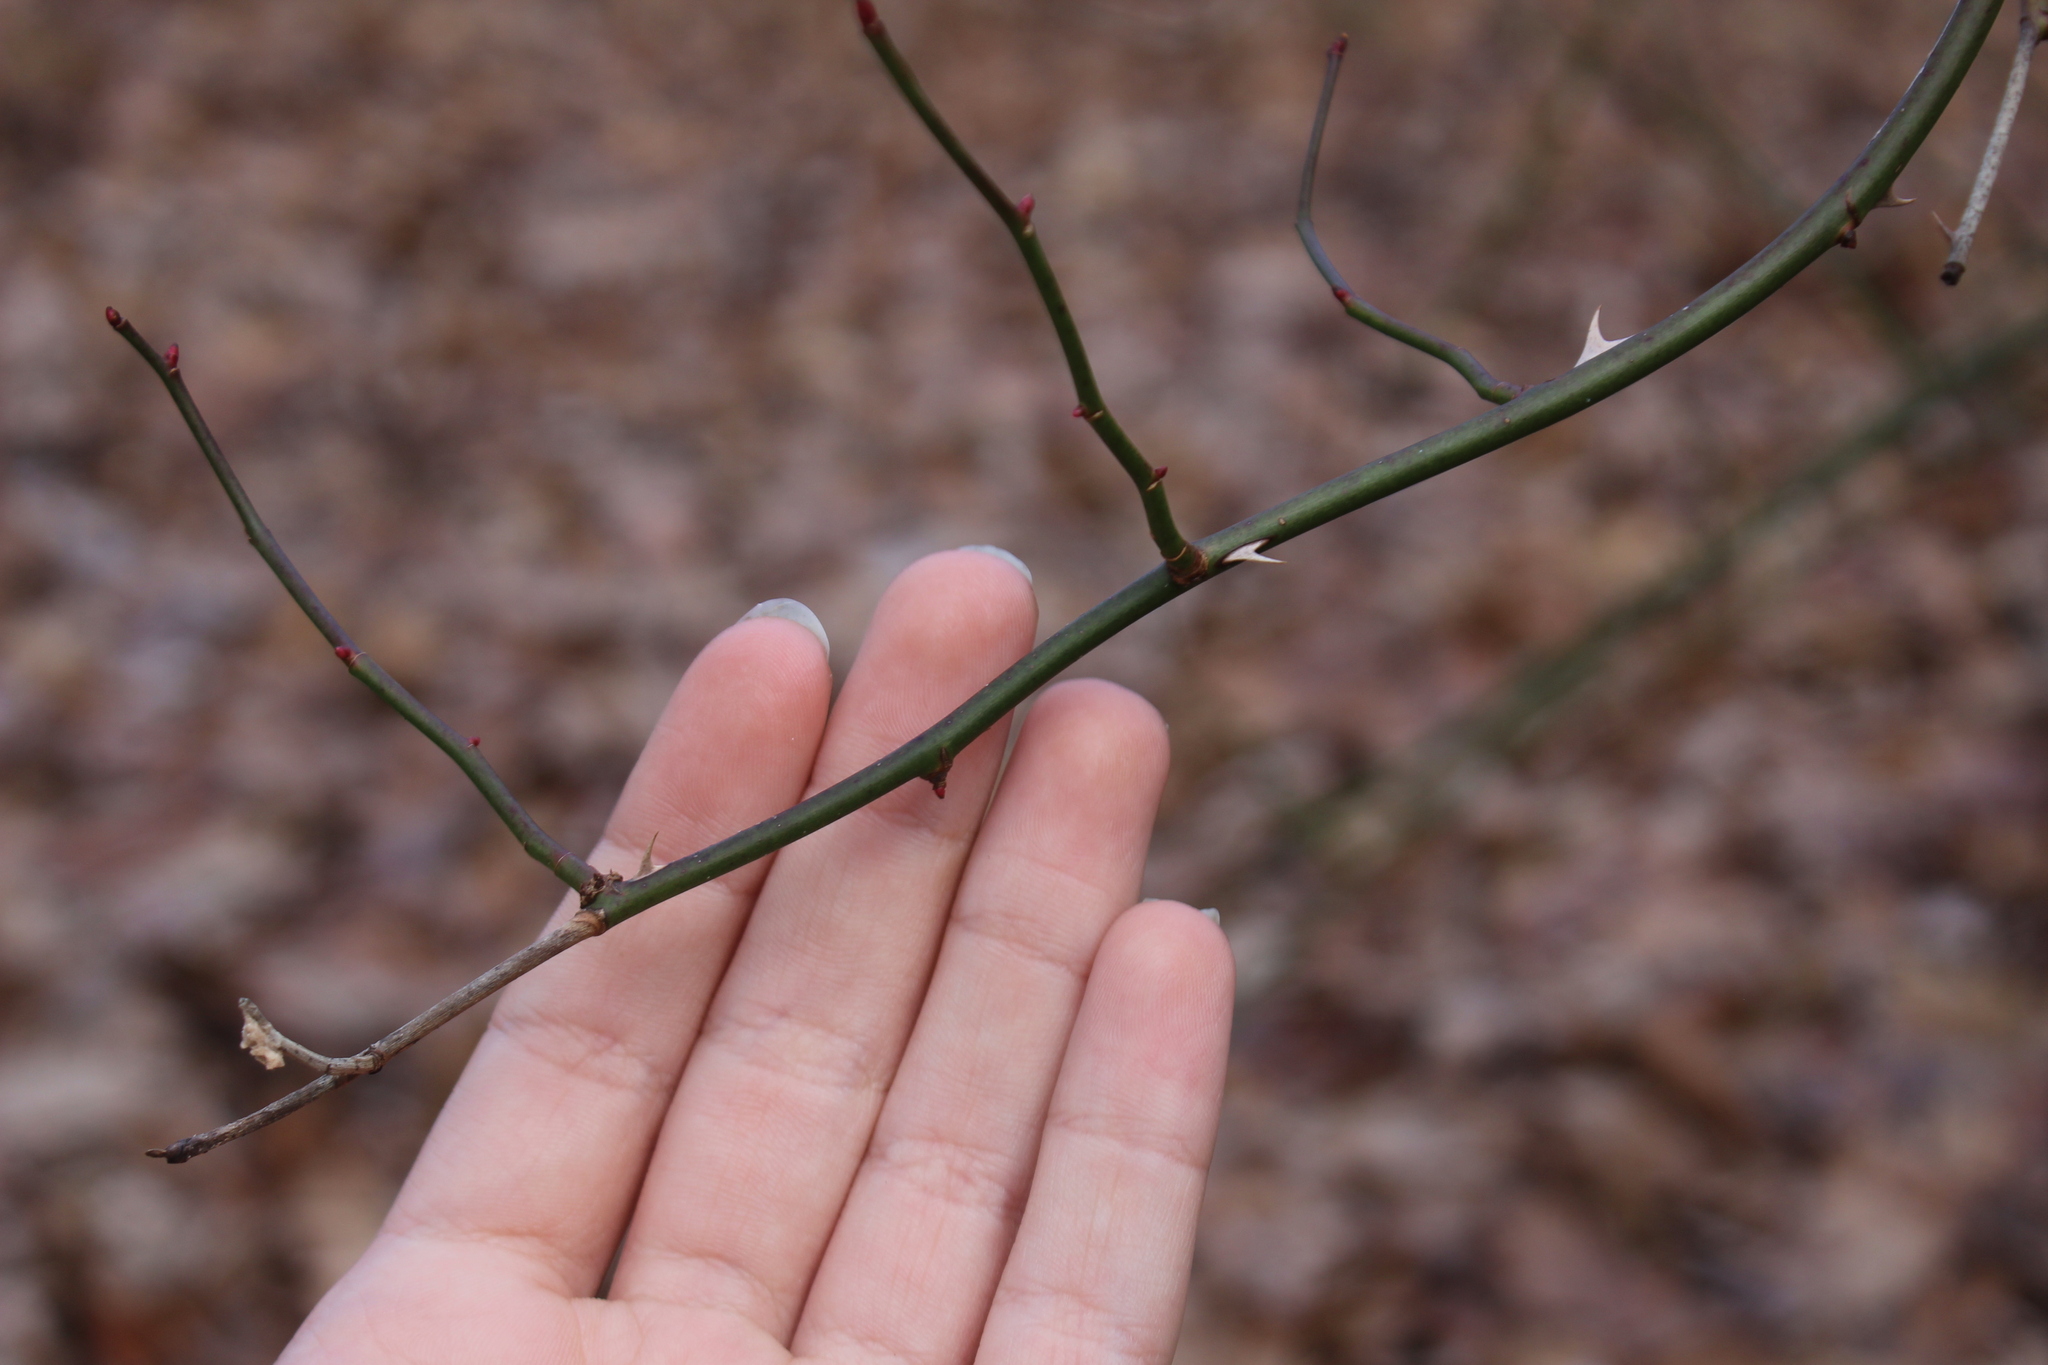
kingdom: Plantae
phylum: Tracheophyta
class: Magnoliopsida
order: Rosales
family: Rosaceae
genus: Rosa
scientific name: Rosa multiflora
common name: Multiflora rose
